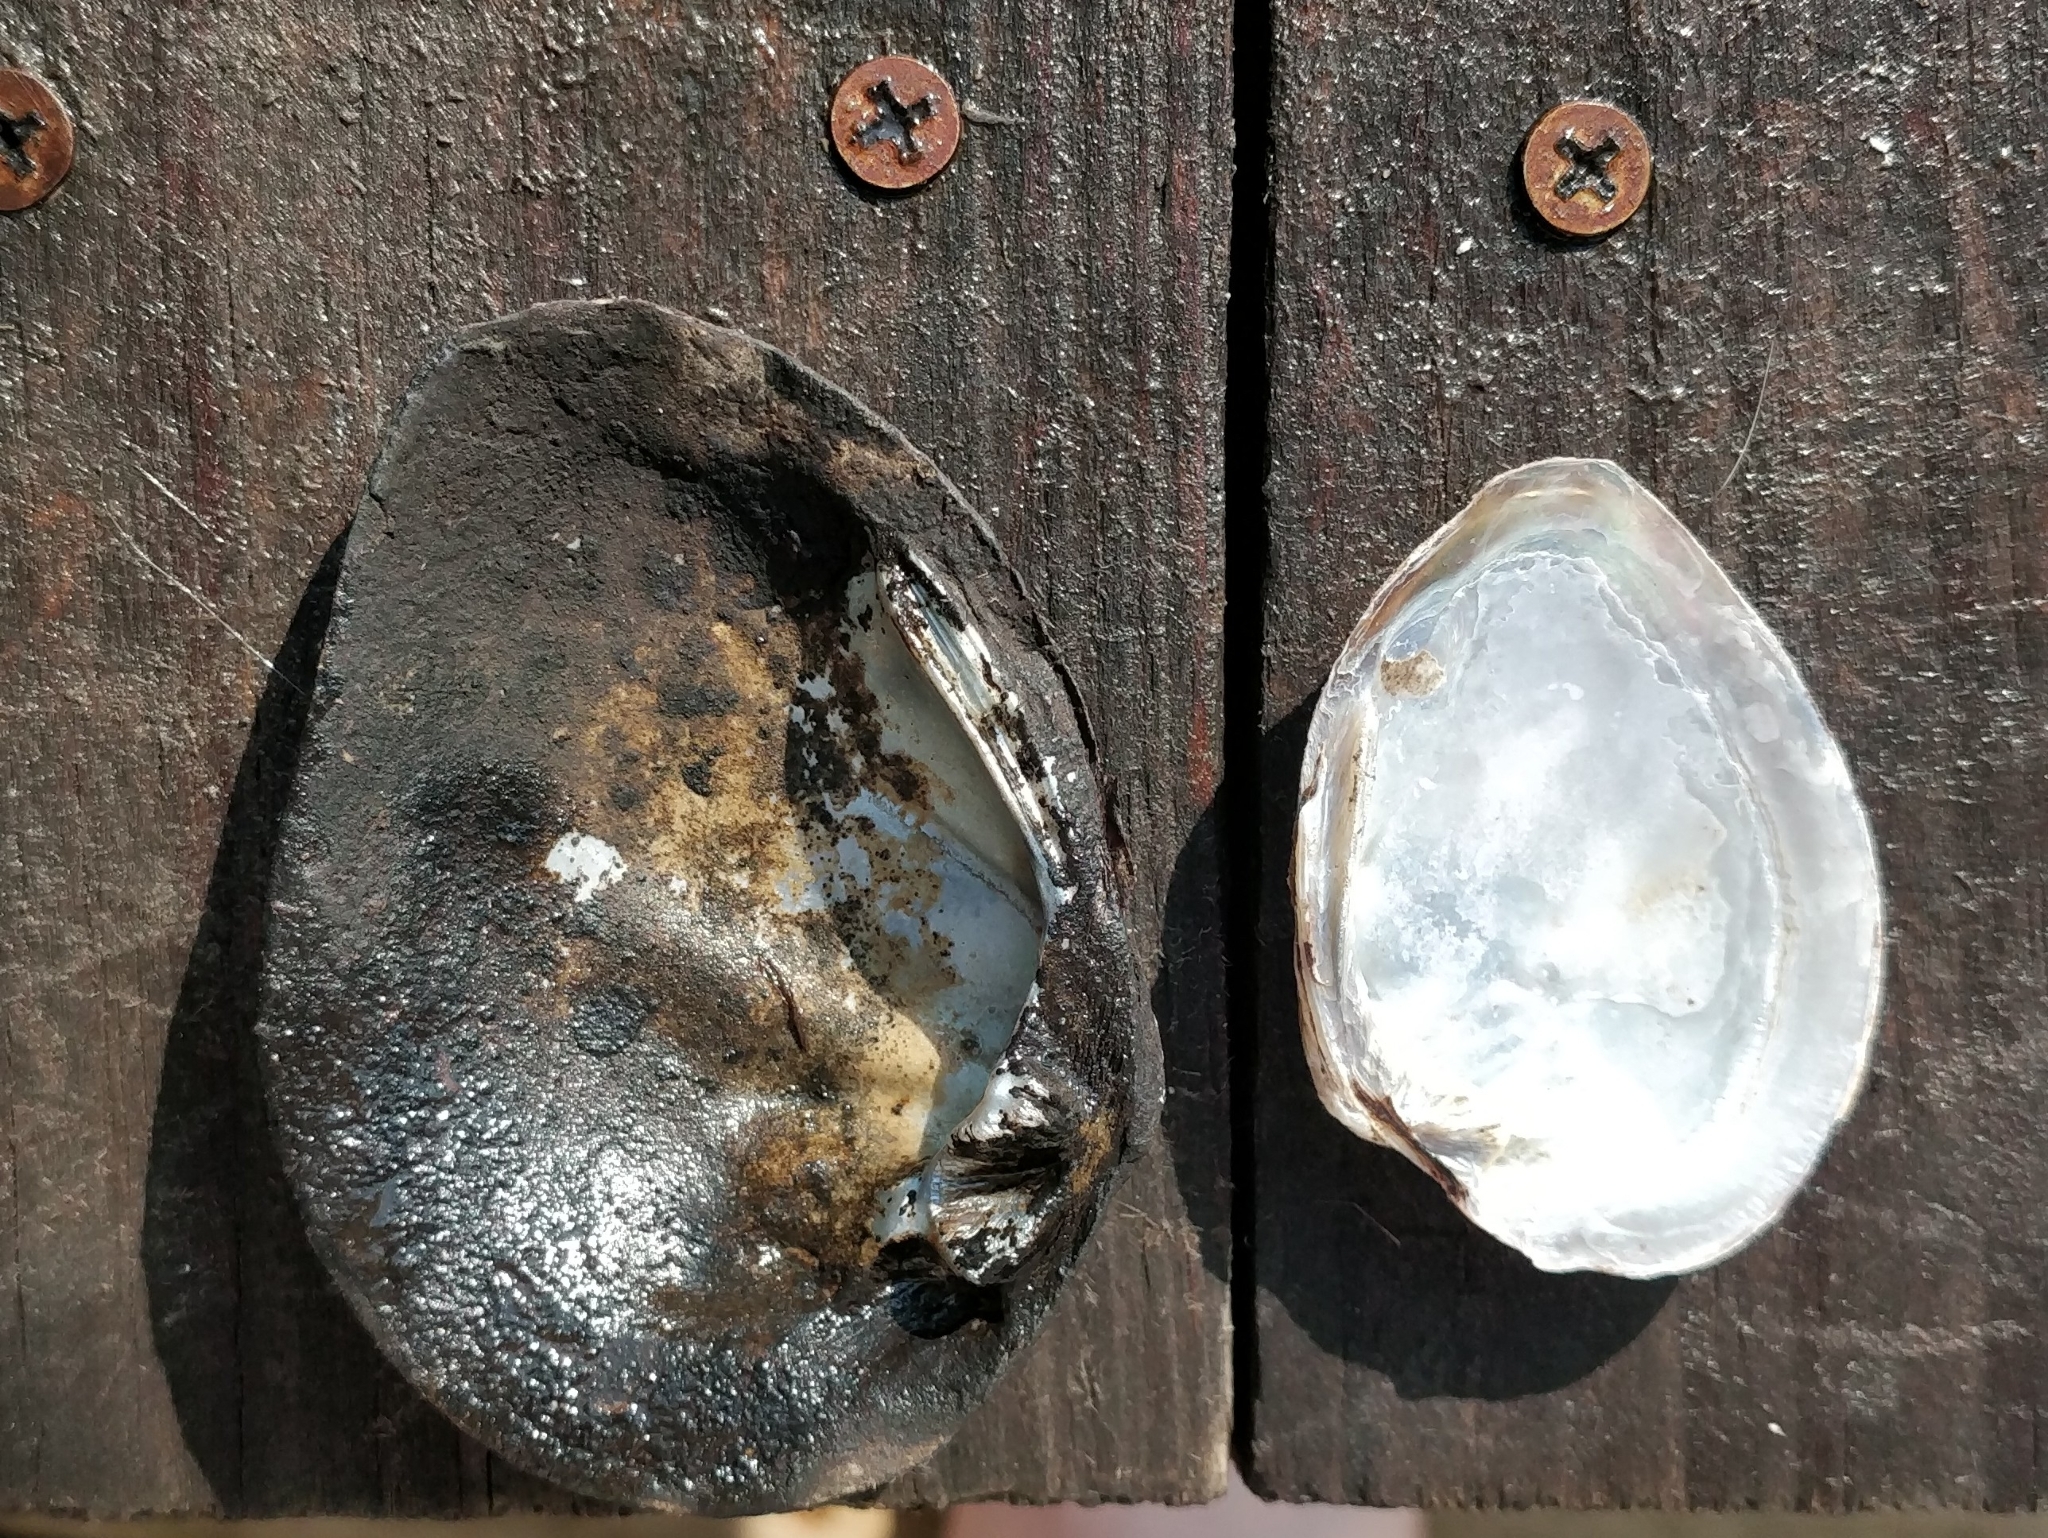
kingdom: Animalia
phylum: Mollusca
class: Bivalvia
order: Unionida
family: Unionidae
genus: Fusconaia
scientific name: Fusconaia flava
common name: Wabash pigtoe
